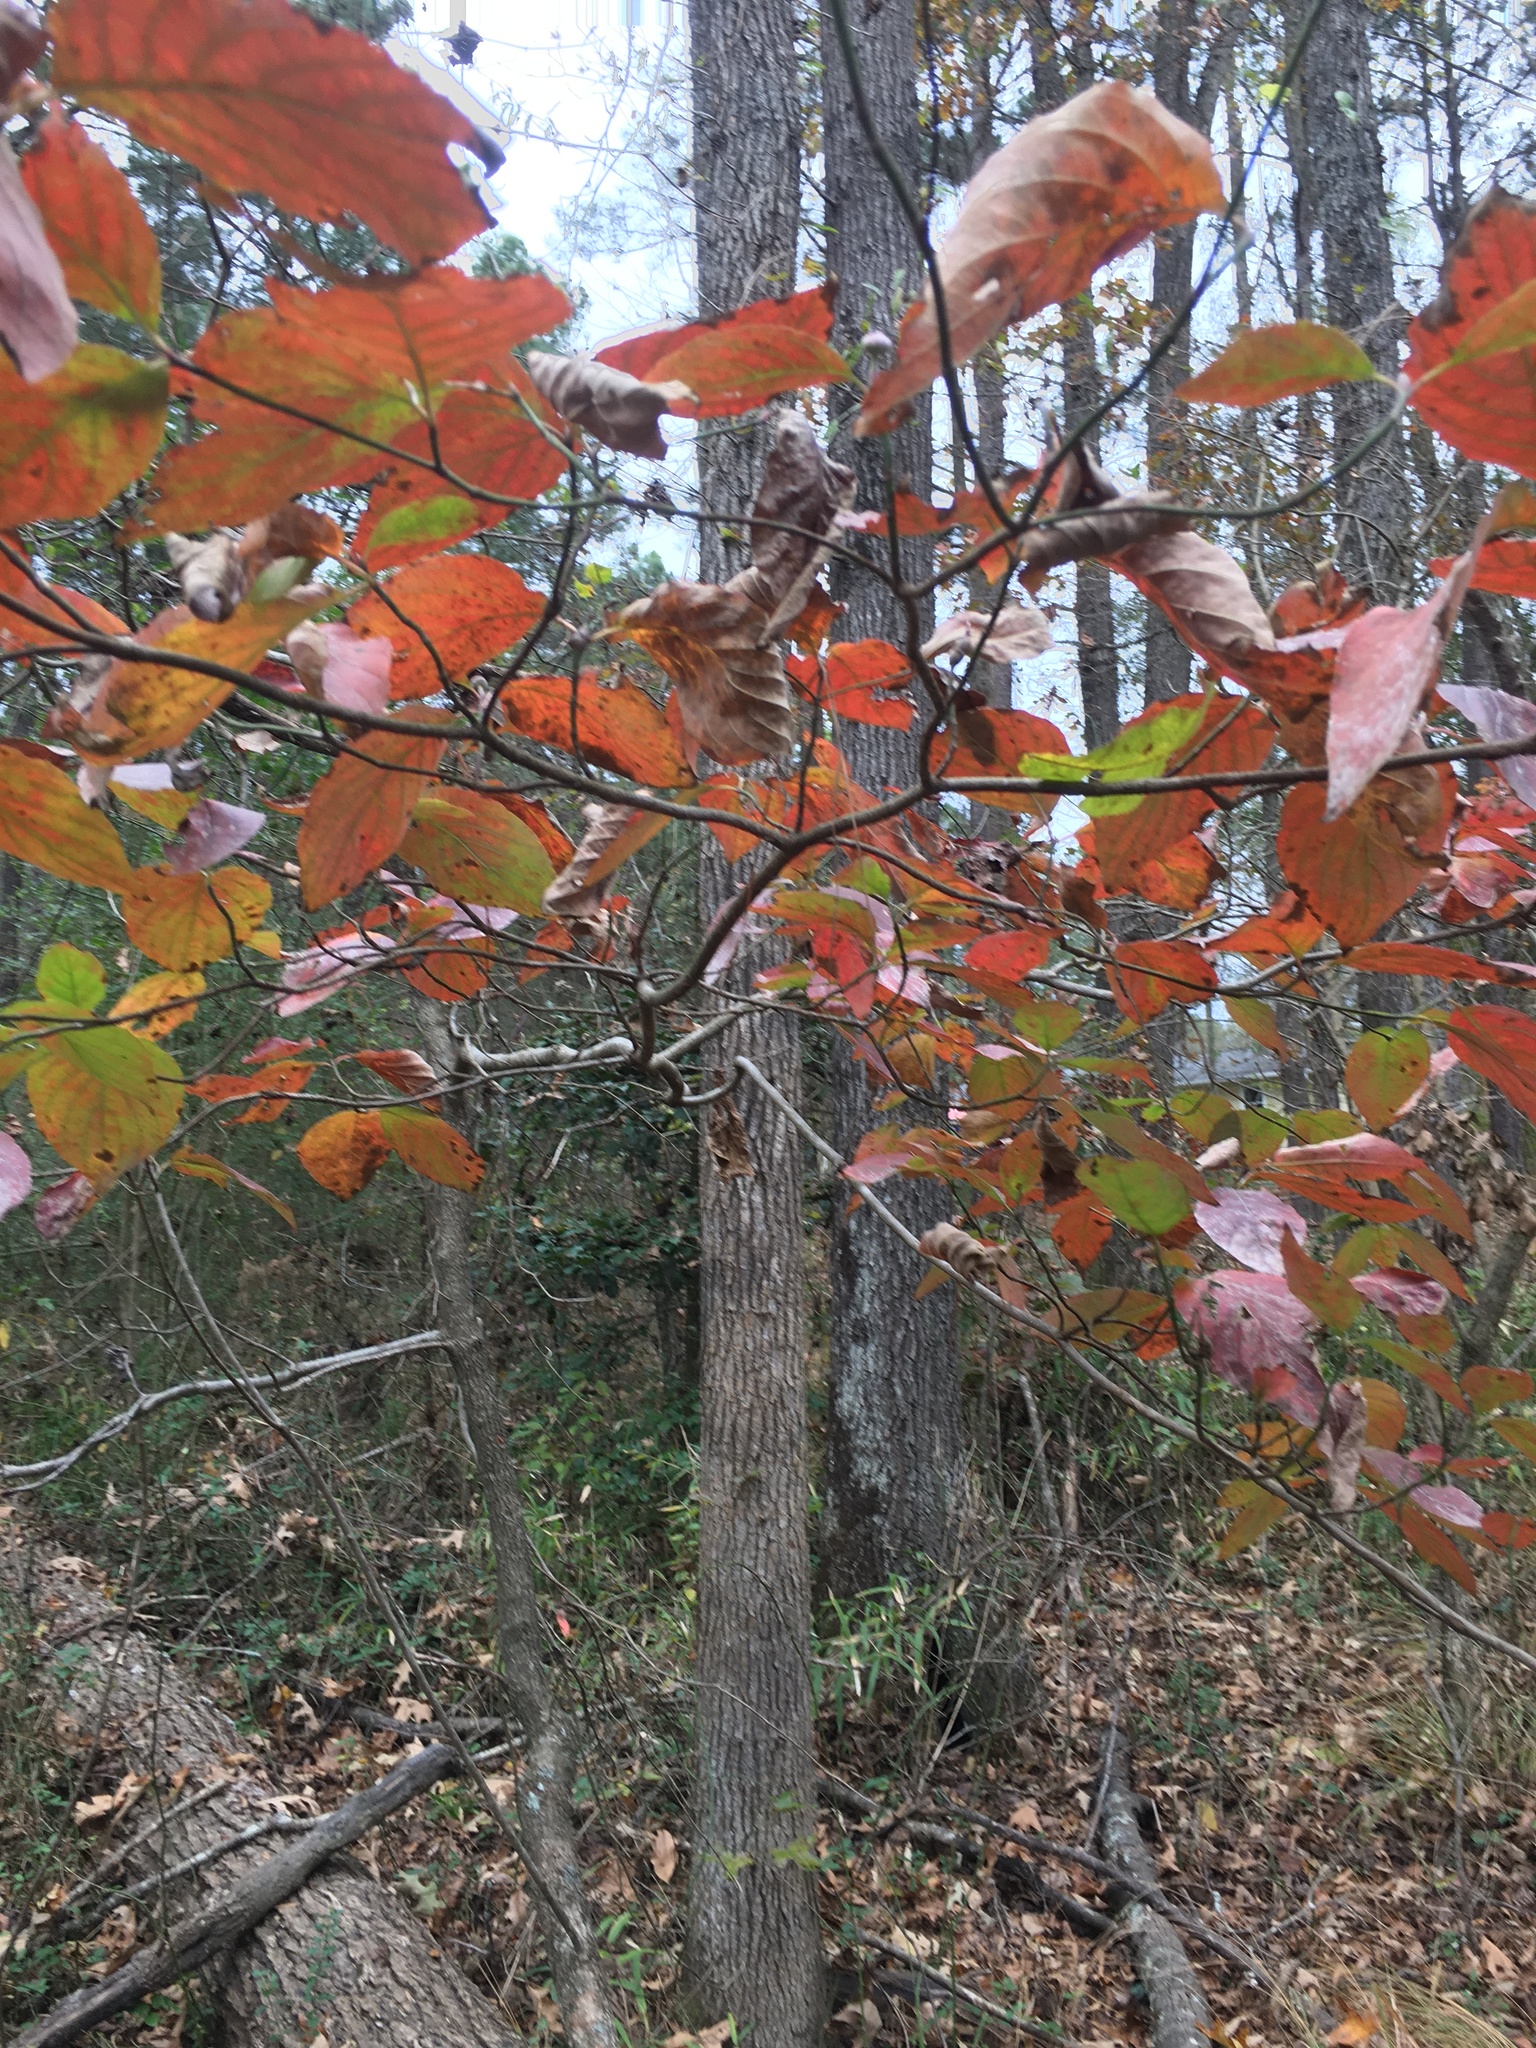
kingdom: Plantae
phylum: Tracheophyta
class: Magnoliopsida
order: Cornales
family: Cornaceae
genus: Cornus
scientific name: Cornus florida
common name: Flowering dogwood
